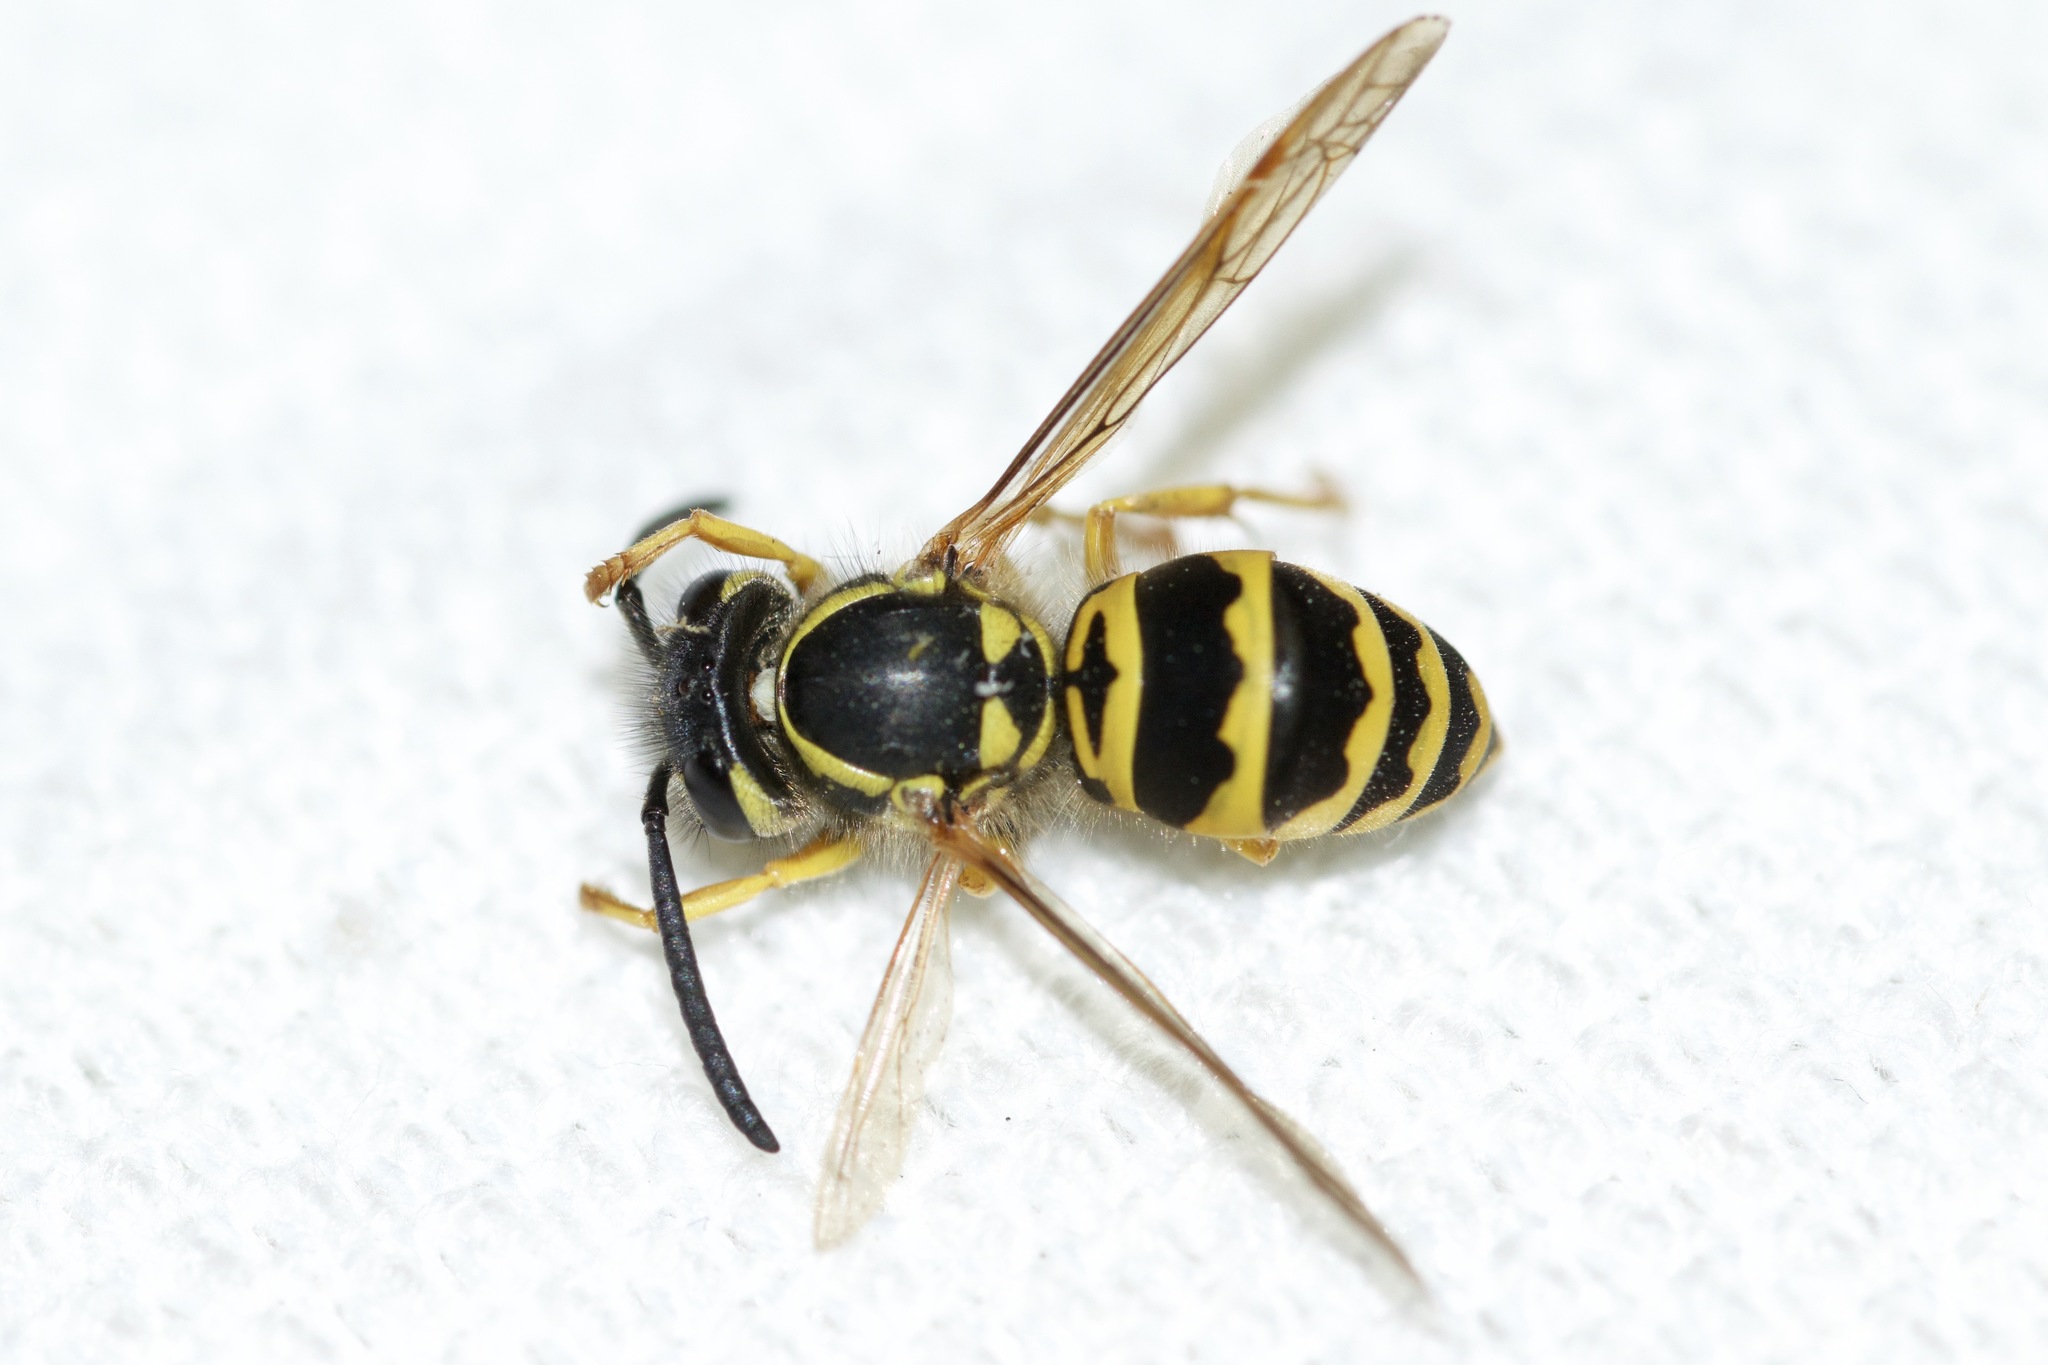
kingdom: Animalia
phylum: Arthropoda
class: Insecta
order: Hymenoptera
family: Vespidae
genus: Vespula
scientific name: Vespula maculifrons
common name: Eastern yellowjacket
